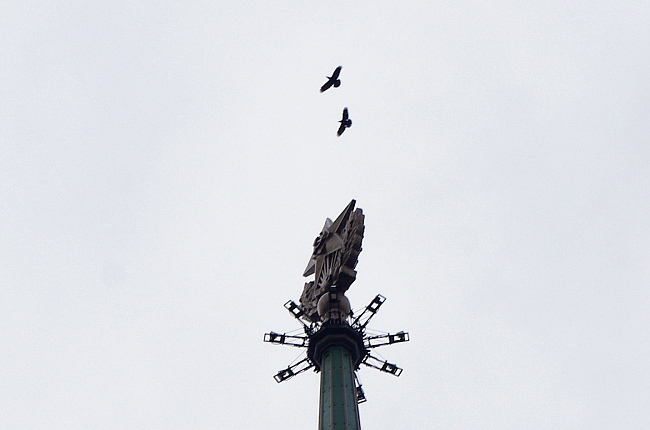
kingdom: Animalia
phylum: Chordata
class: Aves
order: Passeriformes
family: Corvidae
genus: Corvus
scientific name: Corvus corax
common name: Common raven
